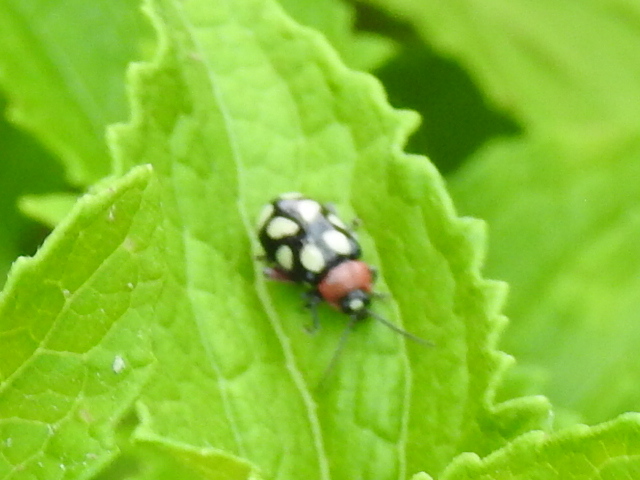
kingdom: Animalia
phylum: Arthropoda
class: Insecta
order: Coleoptera
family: Chrysomelidae
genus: Omophoita
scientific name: Omophoita cyanipennis
